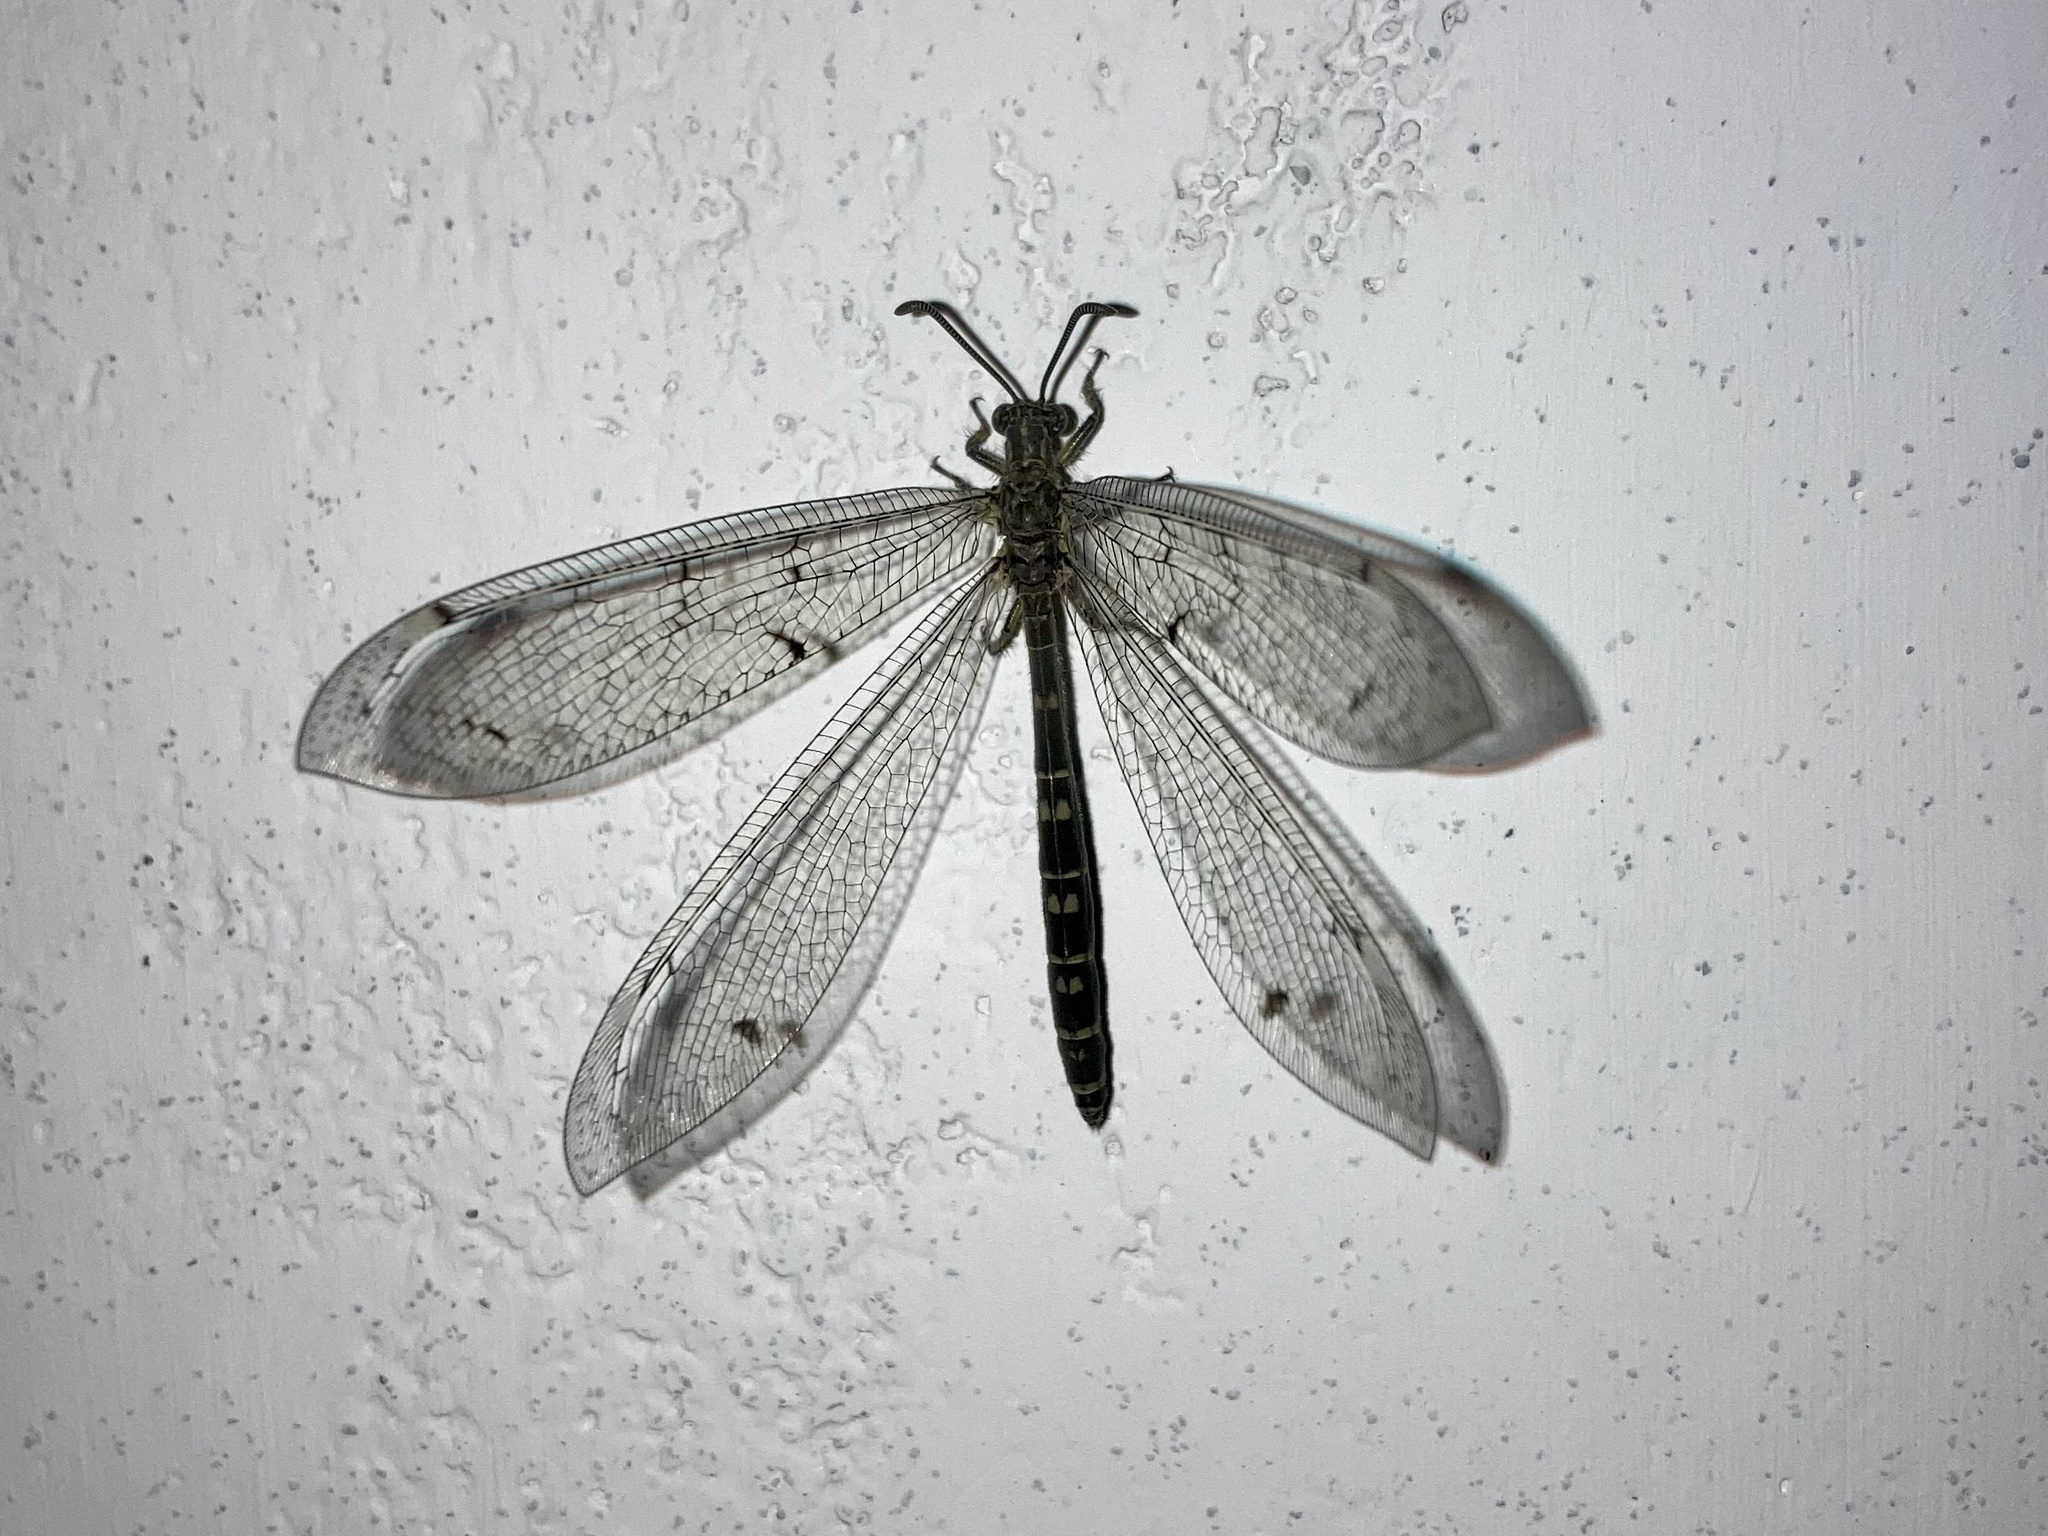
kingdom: Animalia
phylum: Arthropoda
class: Insecta
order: Neuroptera
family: Myrmeleontidae
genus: Distoleon
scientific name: Distoleon tetragrammicus
